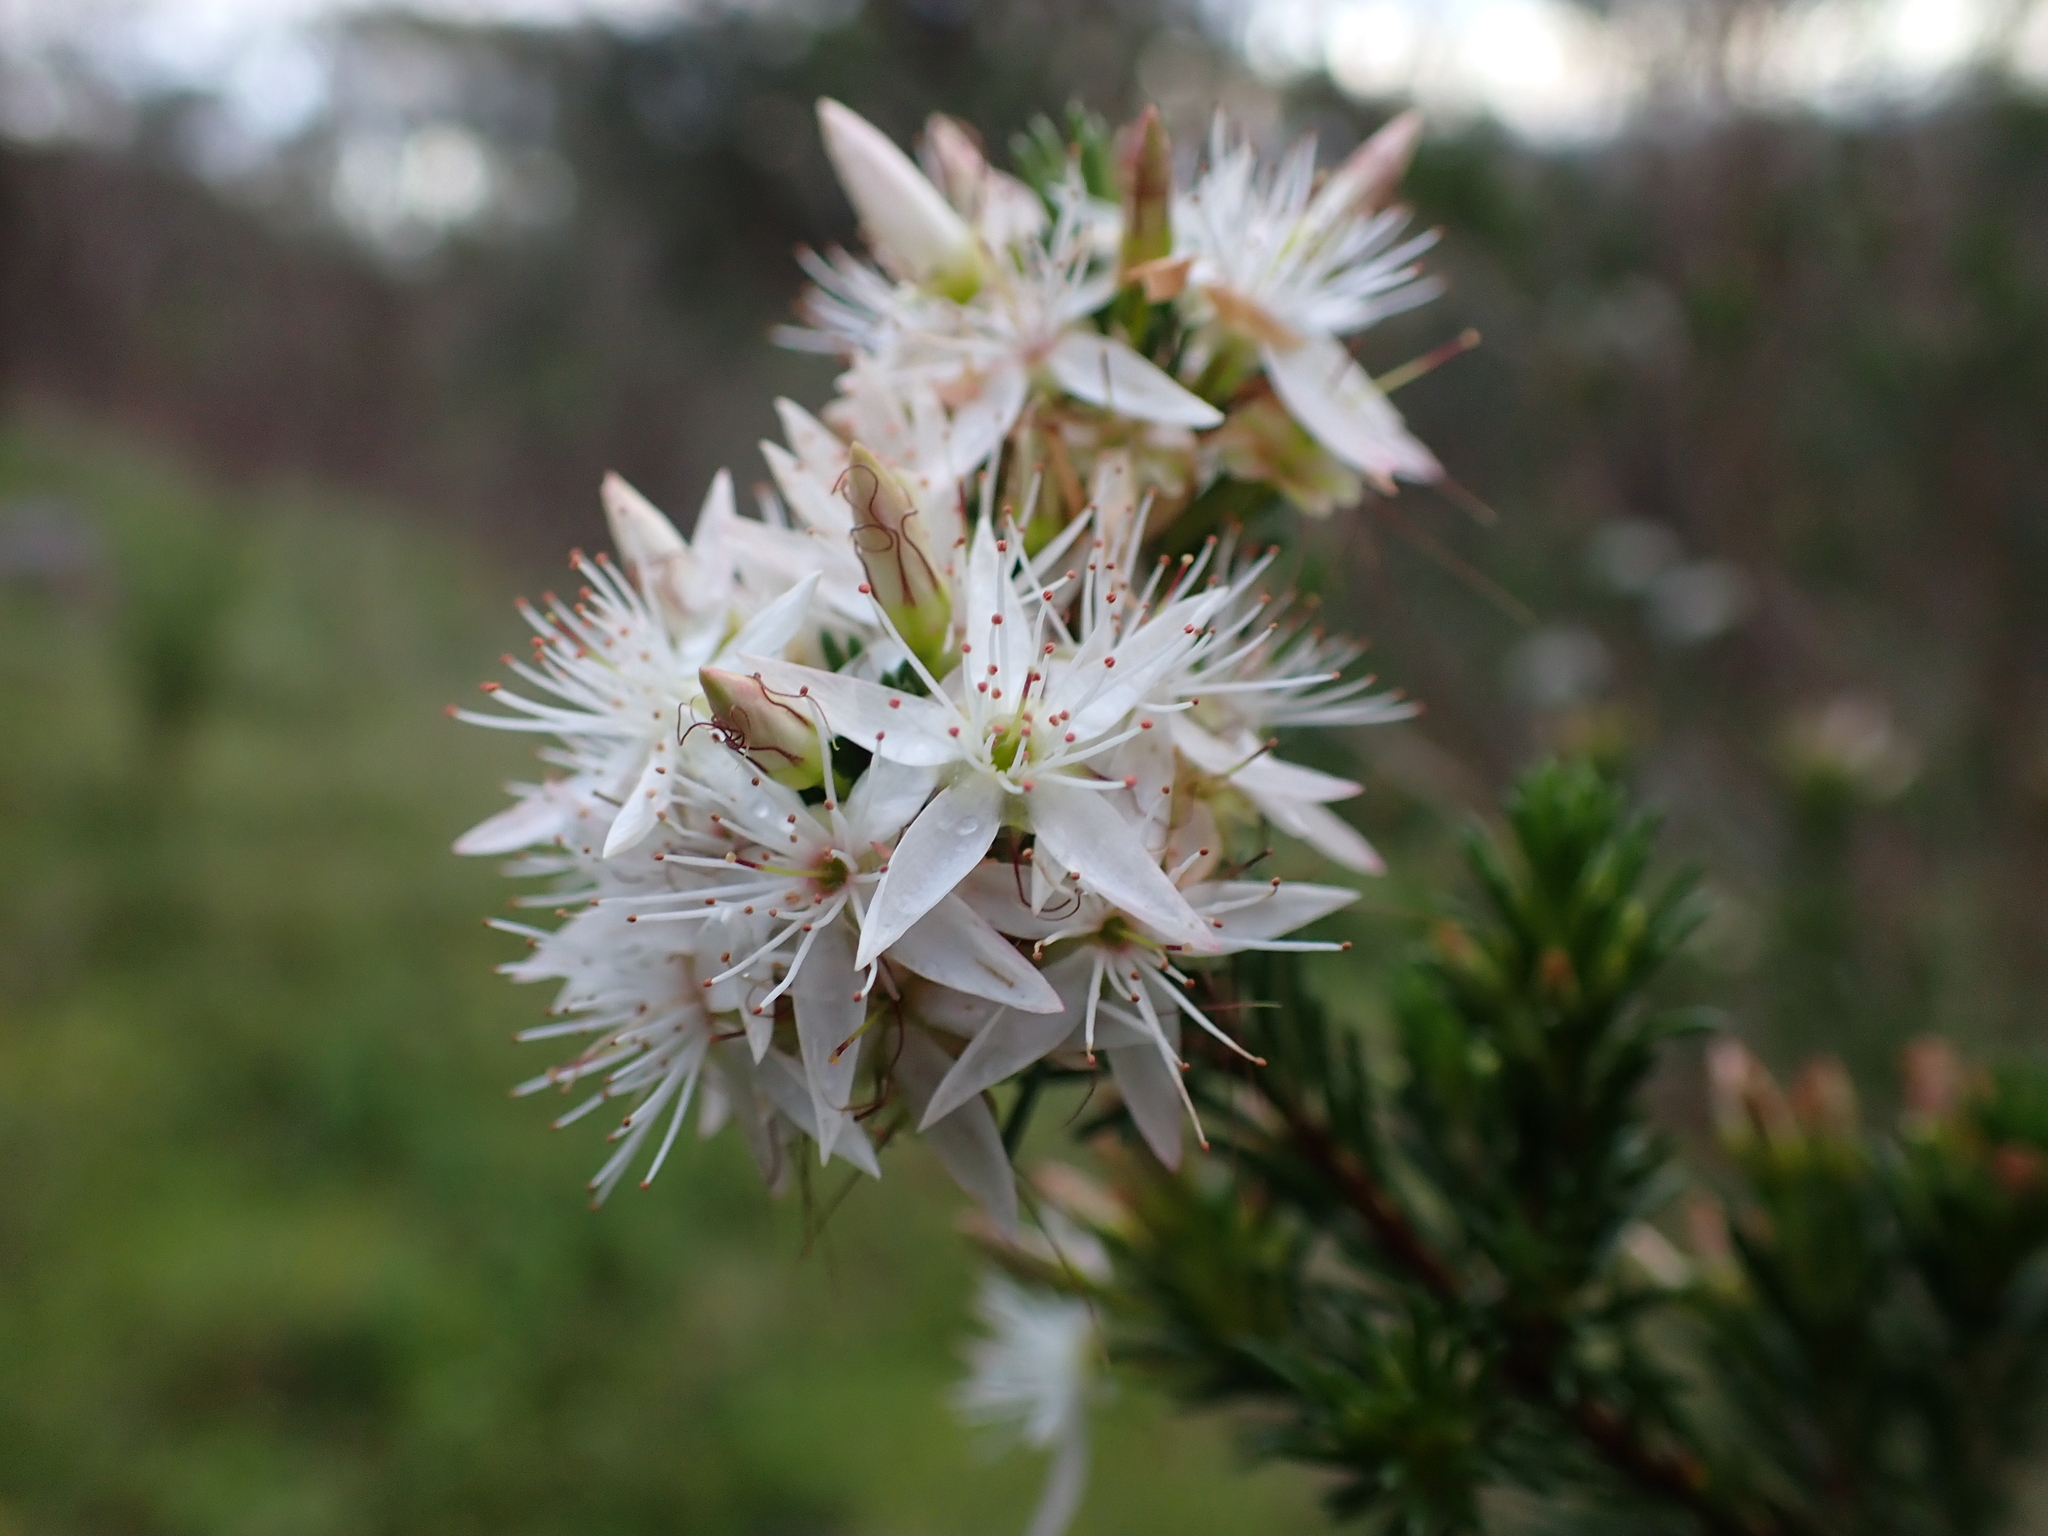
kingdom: Plantae
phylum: Tracheophyta
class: Magnoliopsida
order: Myrtales
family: Myrtaceae
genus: Calytrix
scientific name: Calytrix tetragona
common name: Common fringe myrtle
